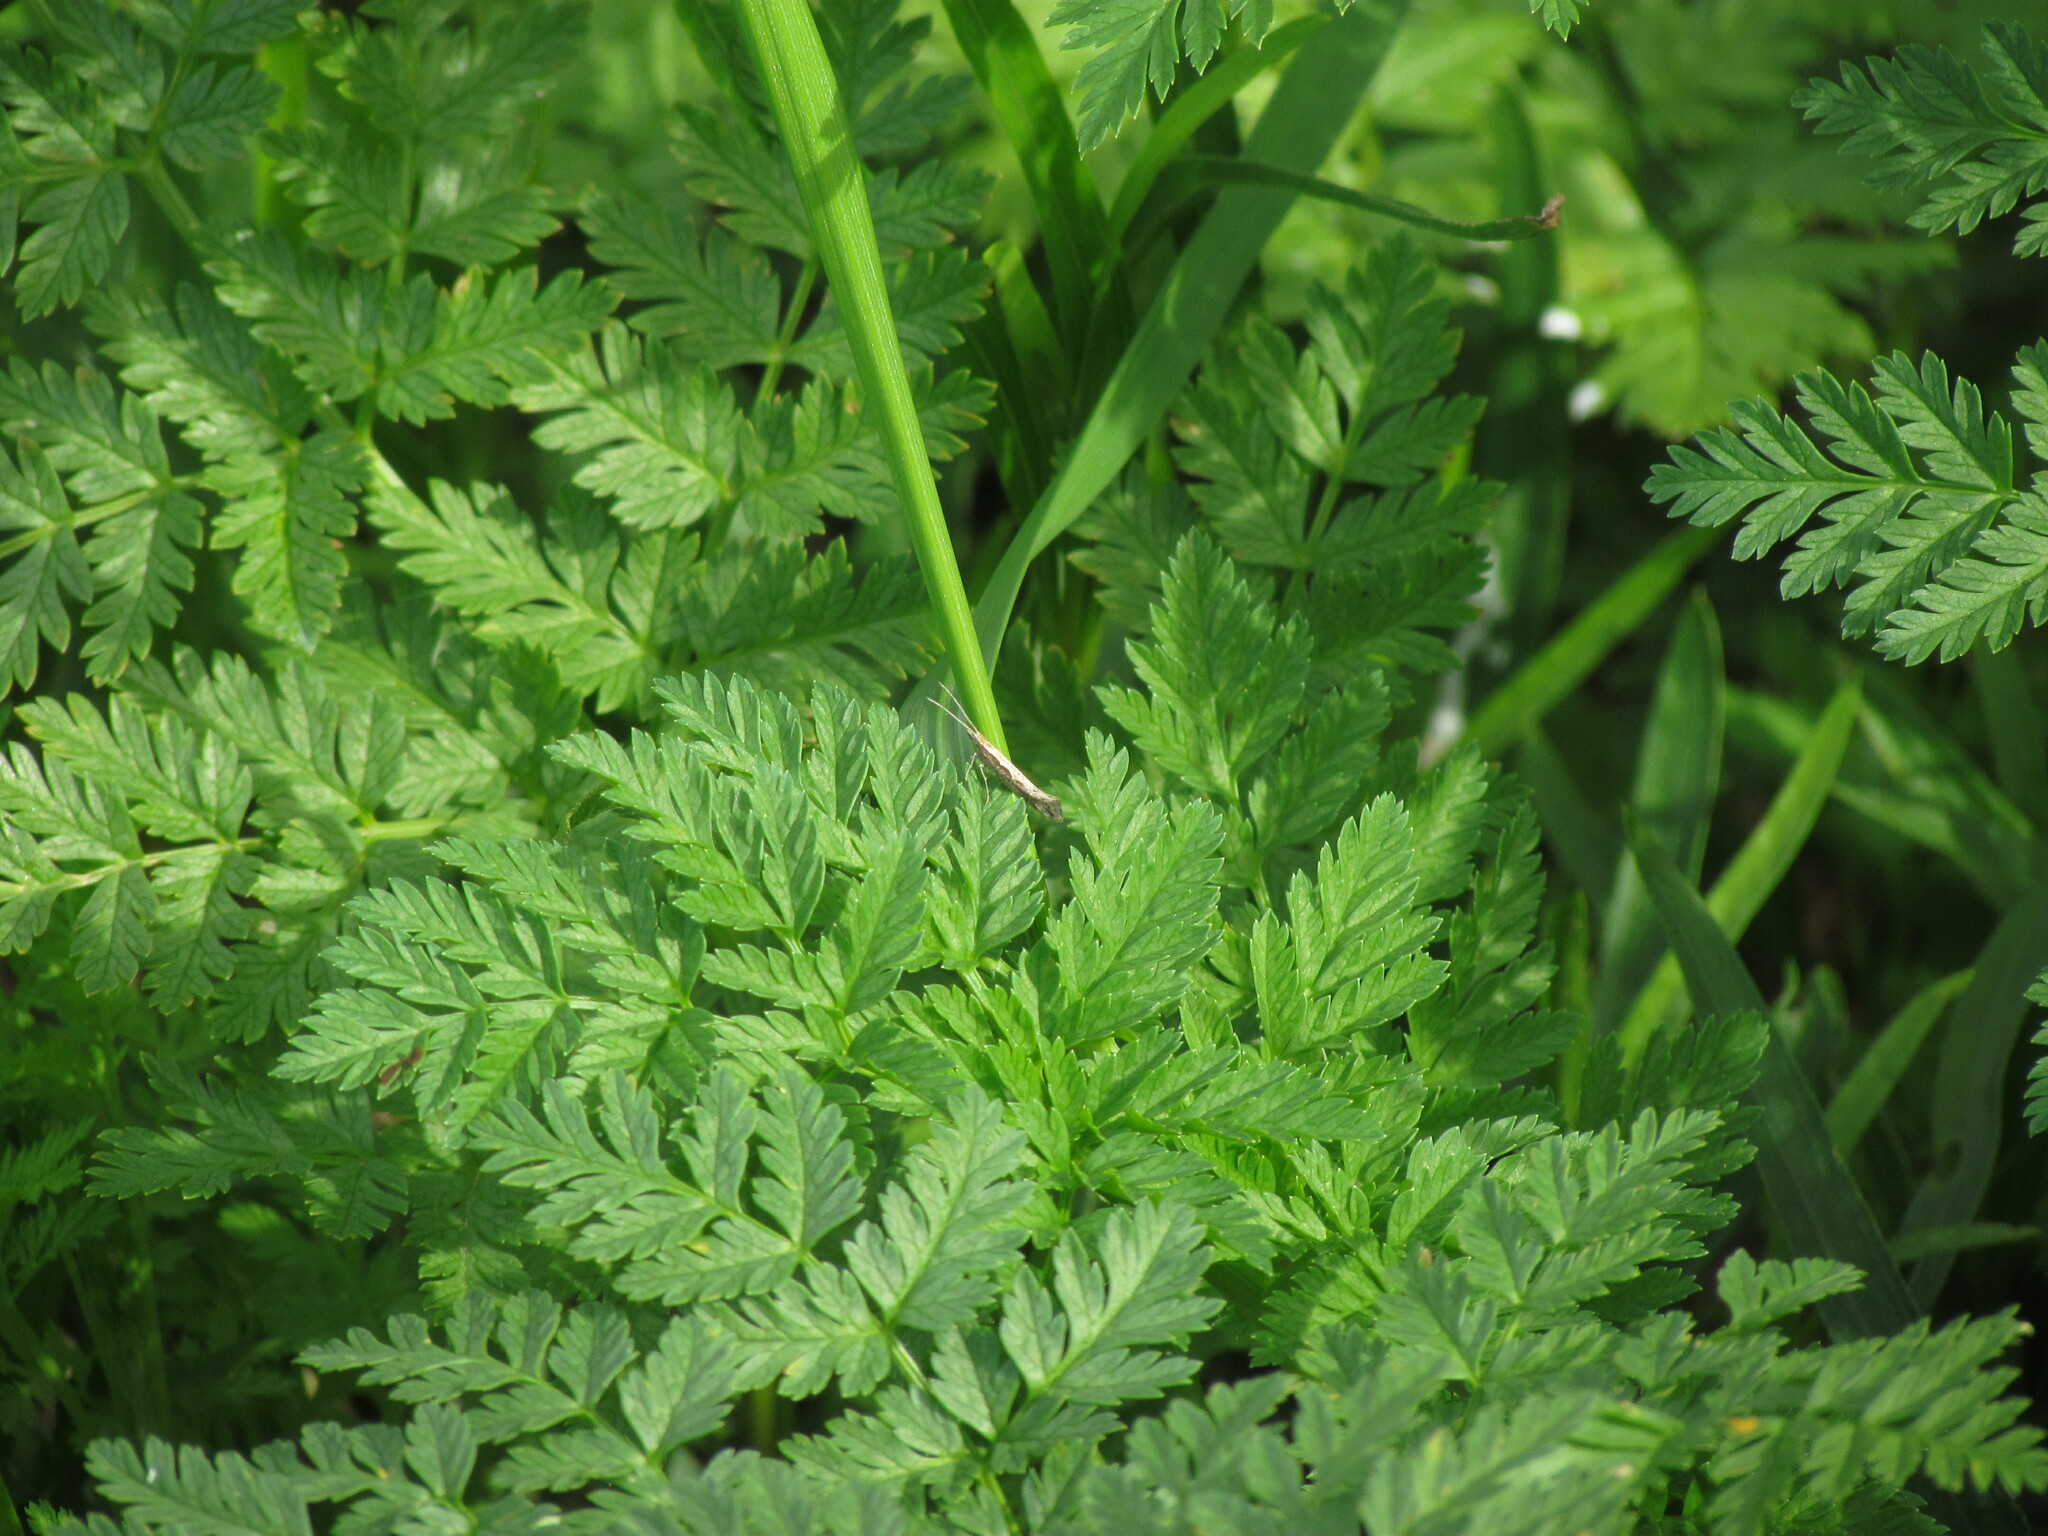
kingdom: Animalia
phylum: Arthropoda
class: Insecta
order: Lepidoptera
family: Plutellidae
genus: Plutella
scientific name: Plutella xylostella
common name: Diamond-back moth
